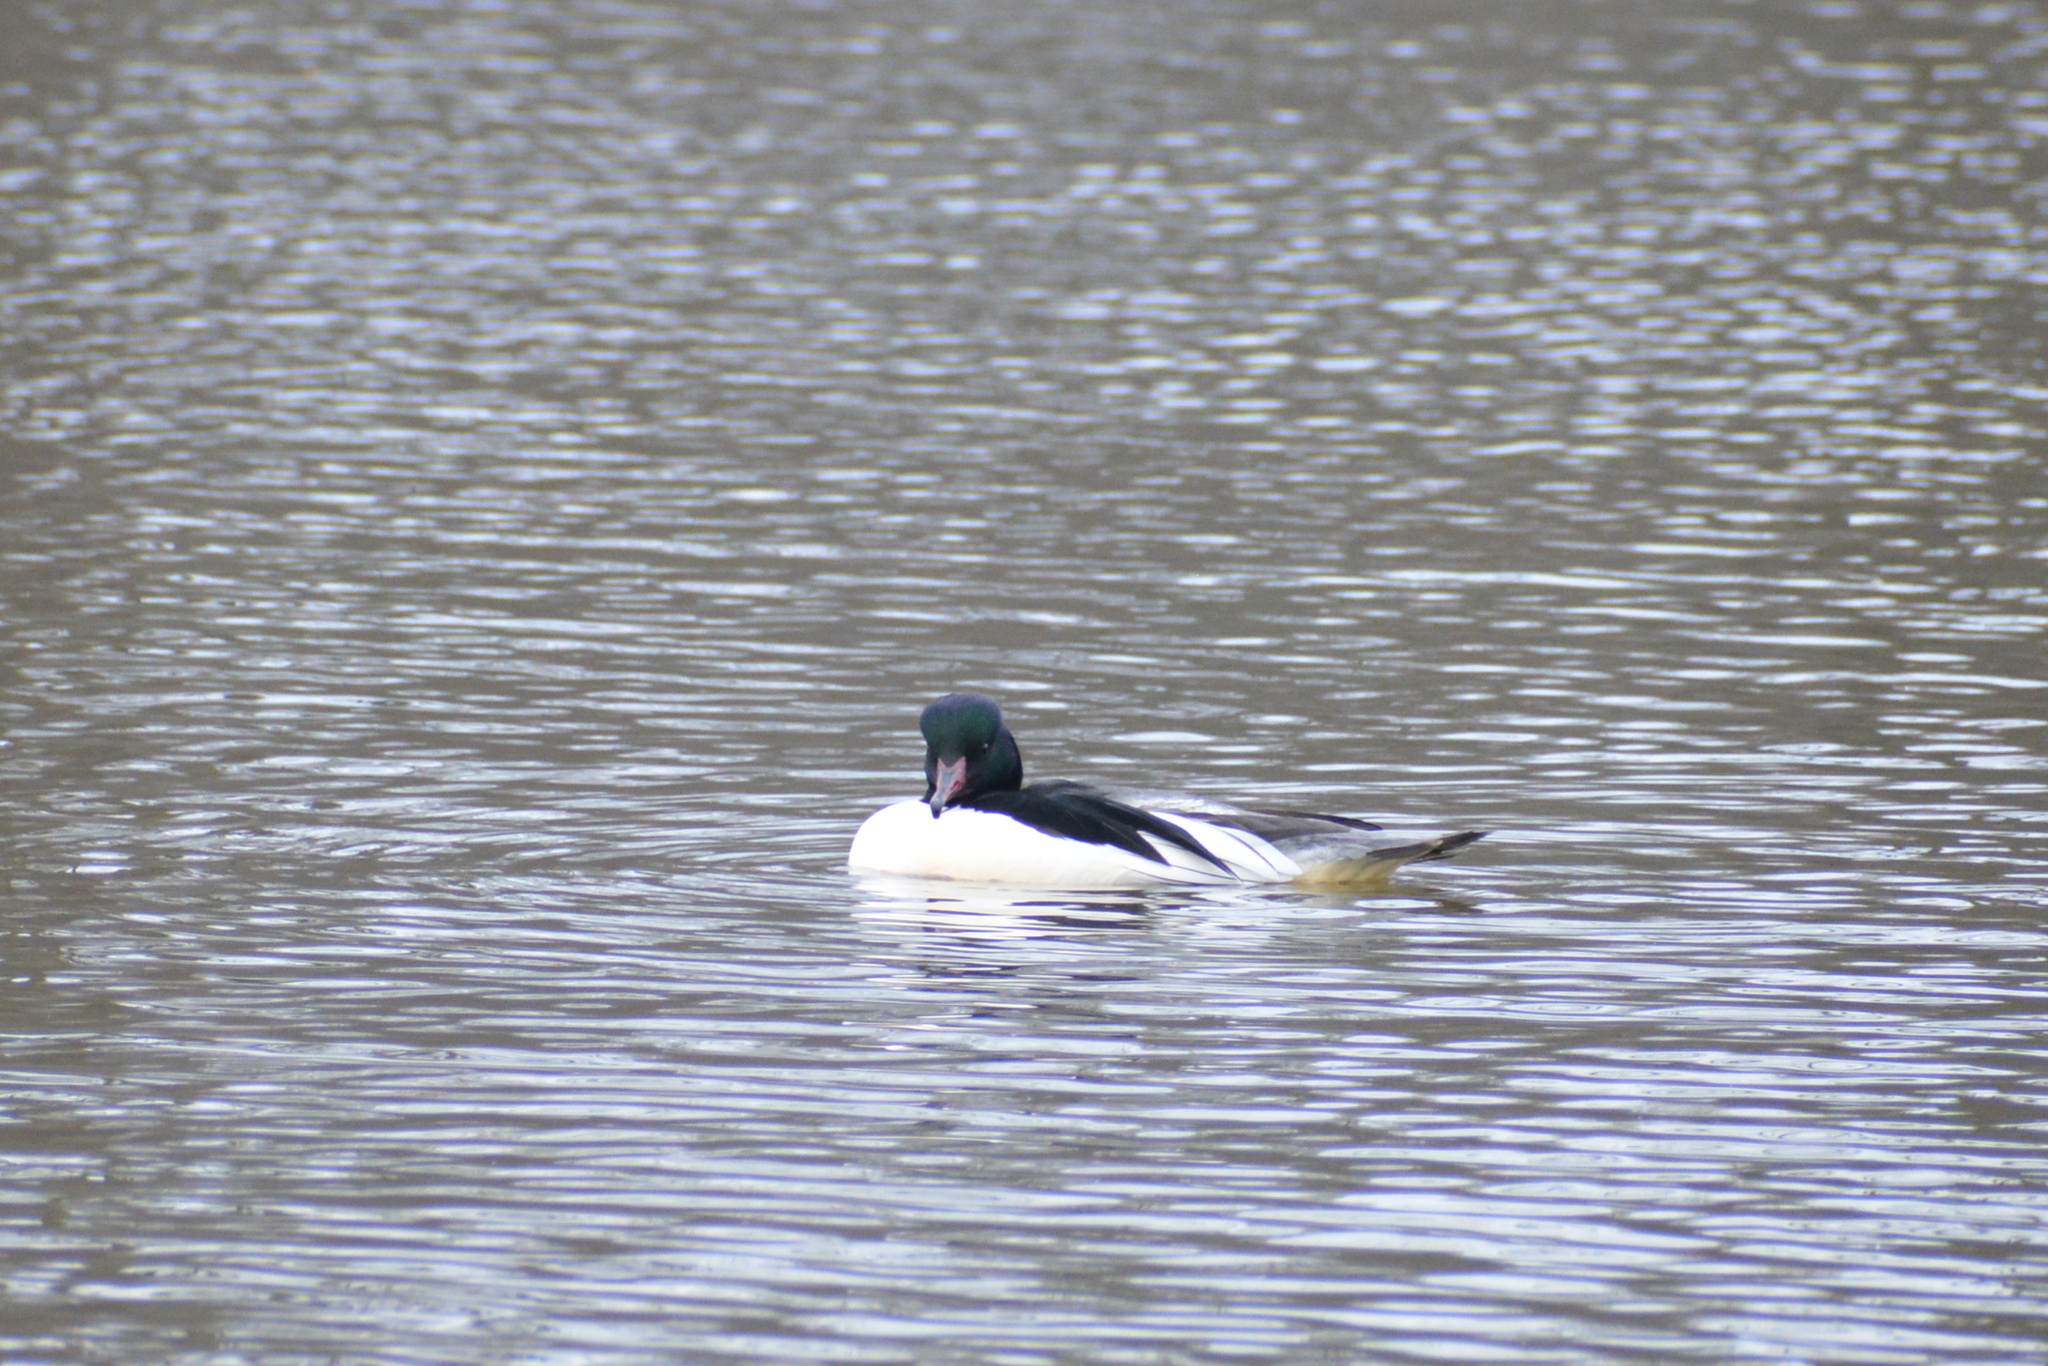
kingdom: Animalia
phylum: Chordata
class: Aves
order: Anseriformes
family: Anatidae
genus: Mergus
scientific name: Mergus merganser
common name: Common merganser
